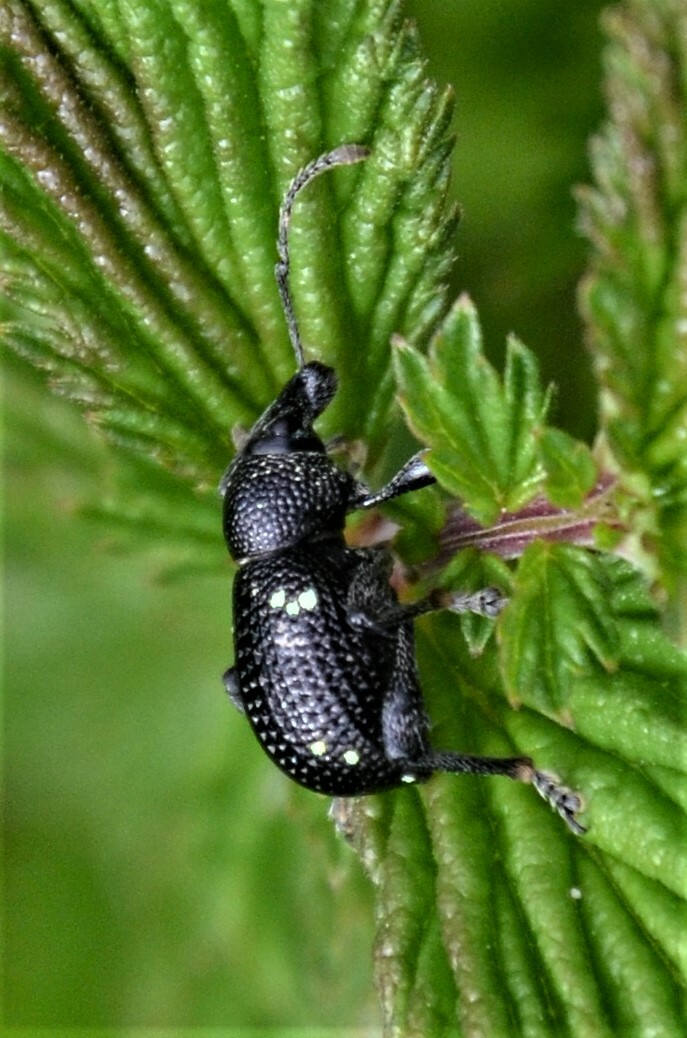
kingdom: Animalia
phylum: Arthropoda
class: Insecta
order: Coleoptera
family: Curculionidae
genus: Otiorhynchus
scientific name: Otiorhynchus gemmatus
